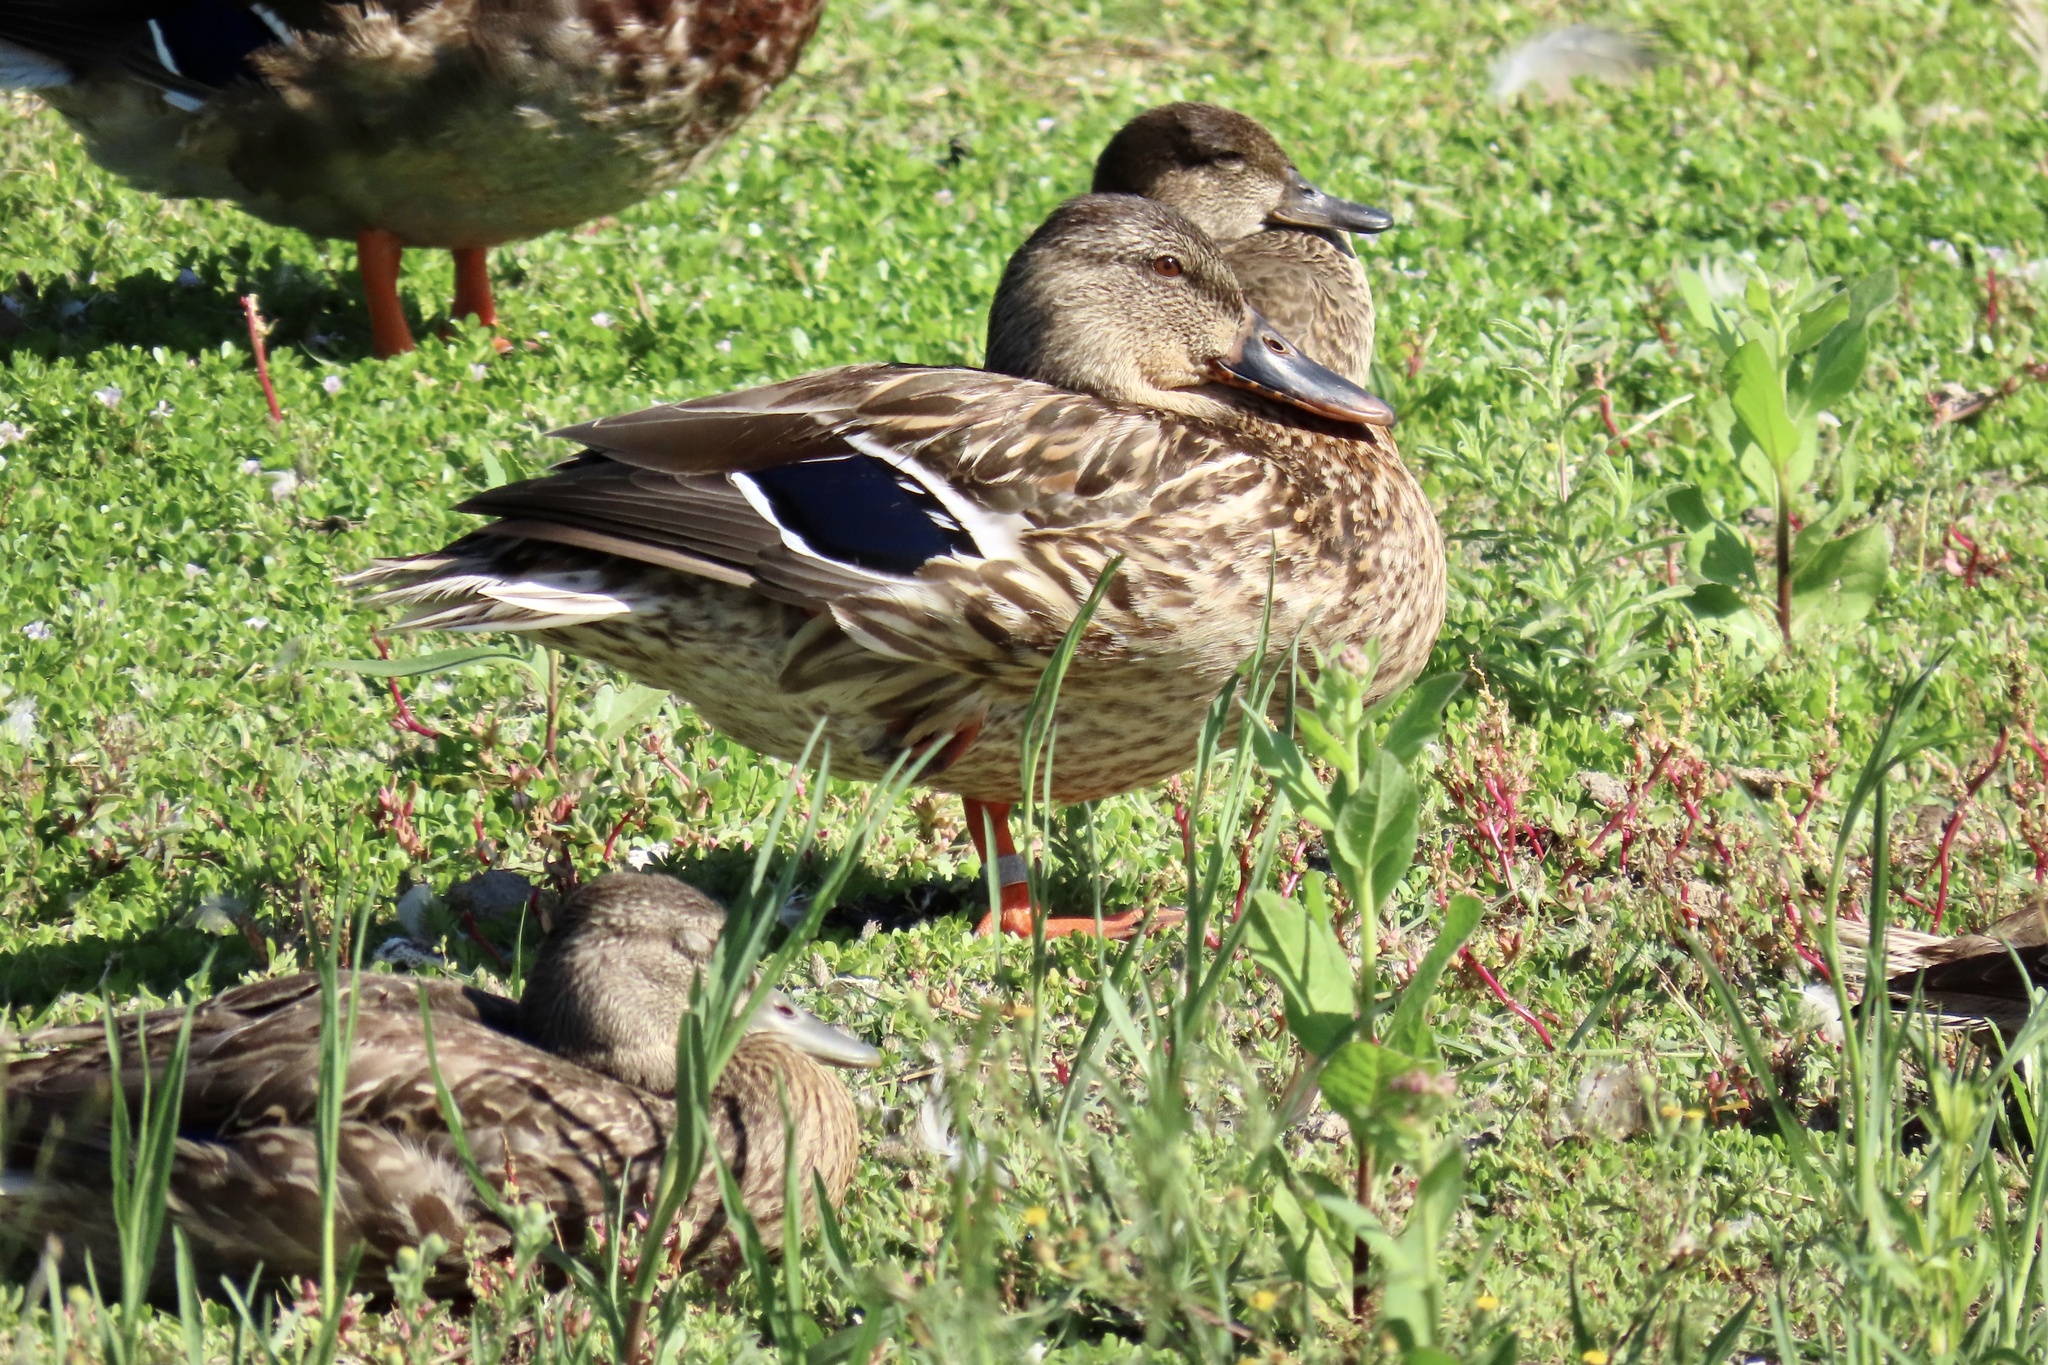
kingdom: Animalia
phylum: Chordata
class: Aves
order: Anseriformes
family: Anatidae
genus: Anas
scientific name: Anas platyrhynchos
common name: Mallard
